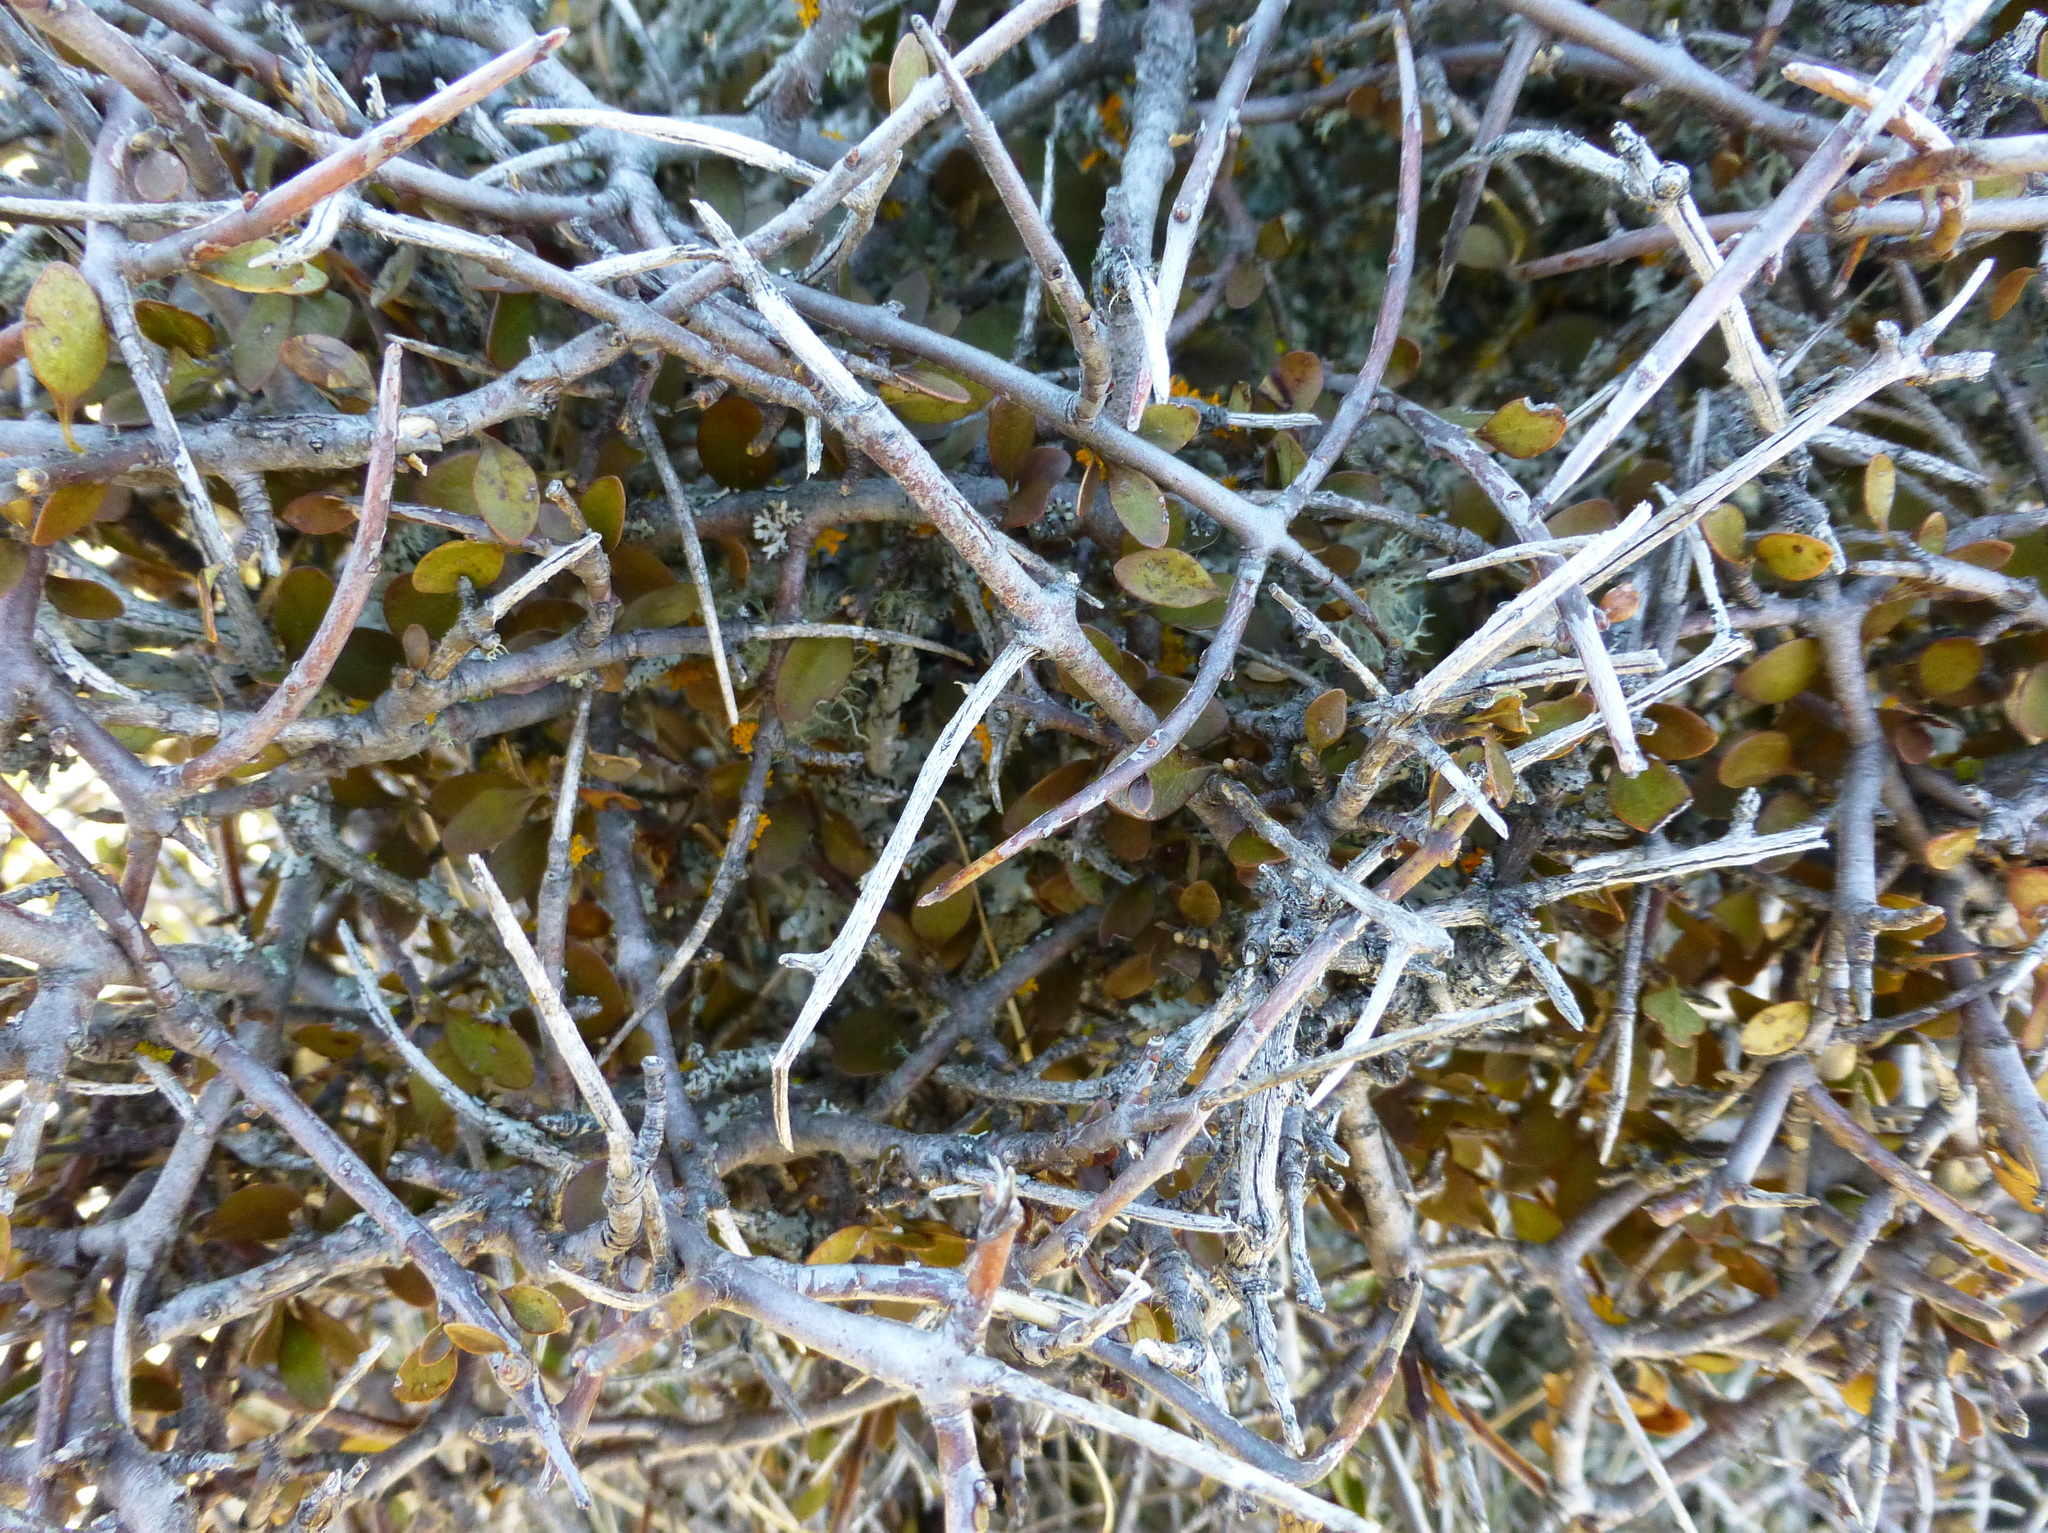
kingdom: Plantae
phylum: Tracheophyta
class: Magnoliopsida
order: Oxalidales
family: Elaeocarpaceae
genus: Aristotelia
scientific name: Aristotelia fruticosa
